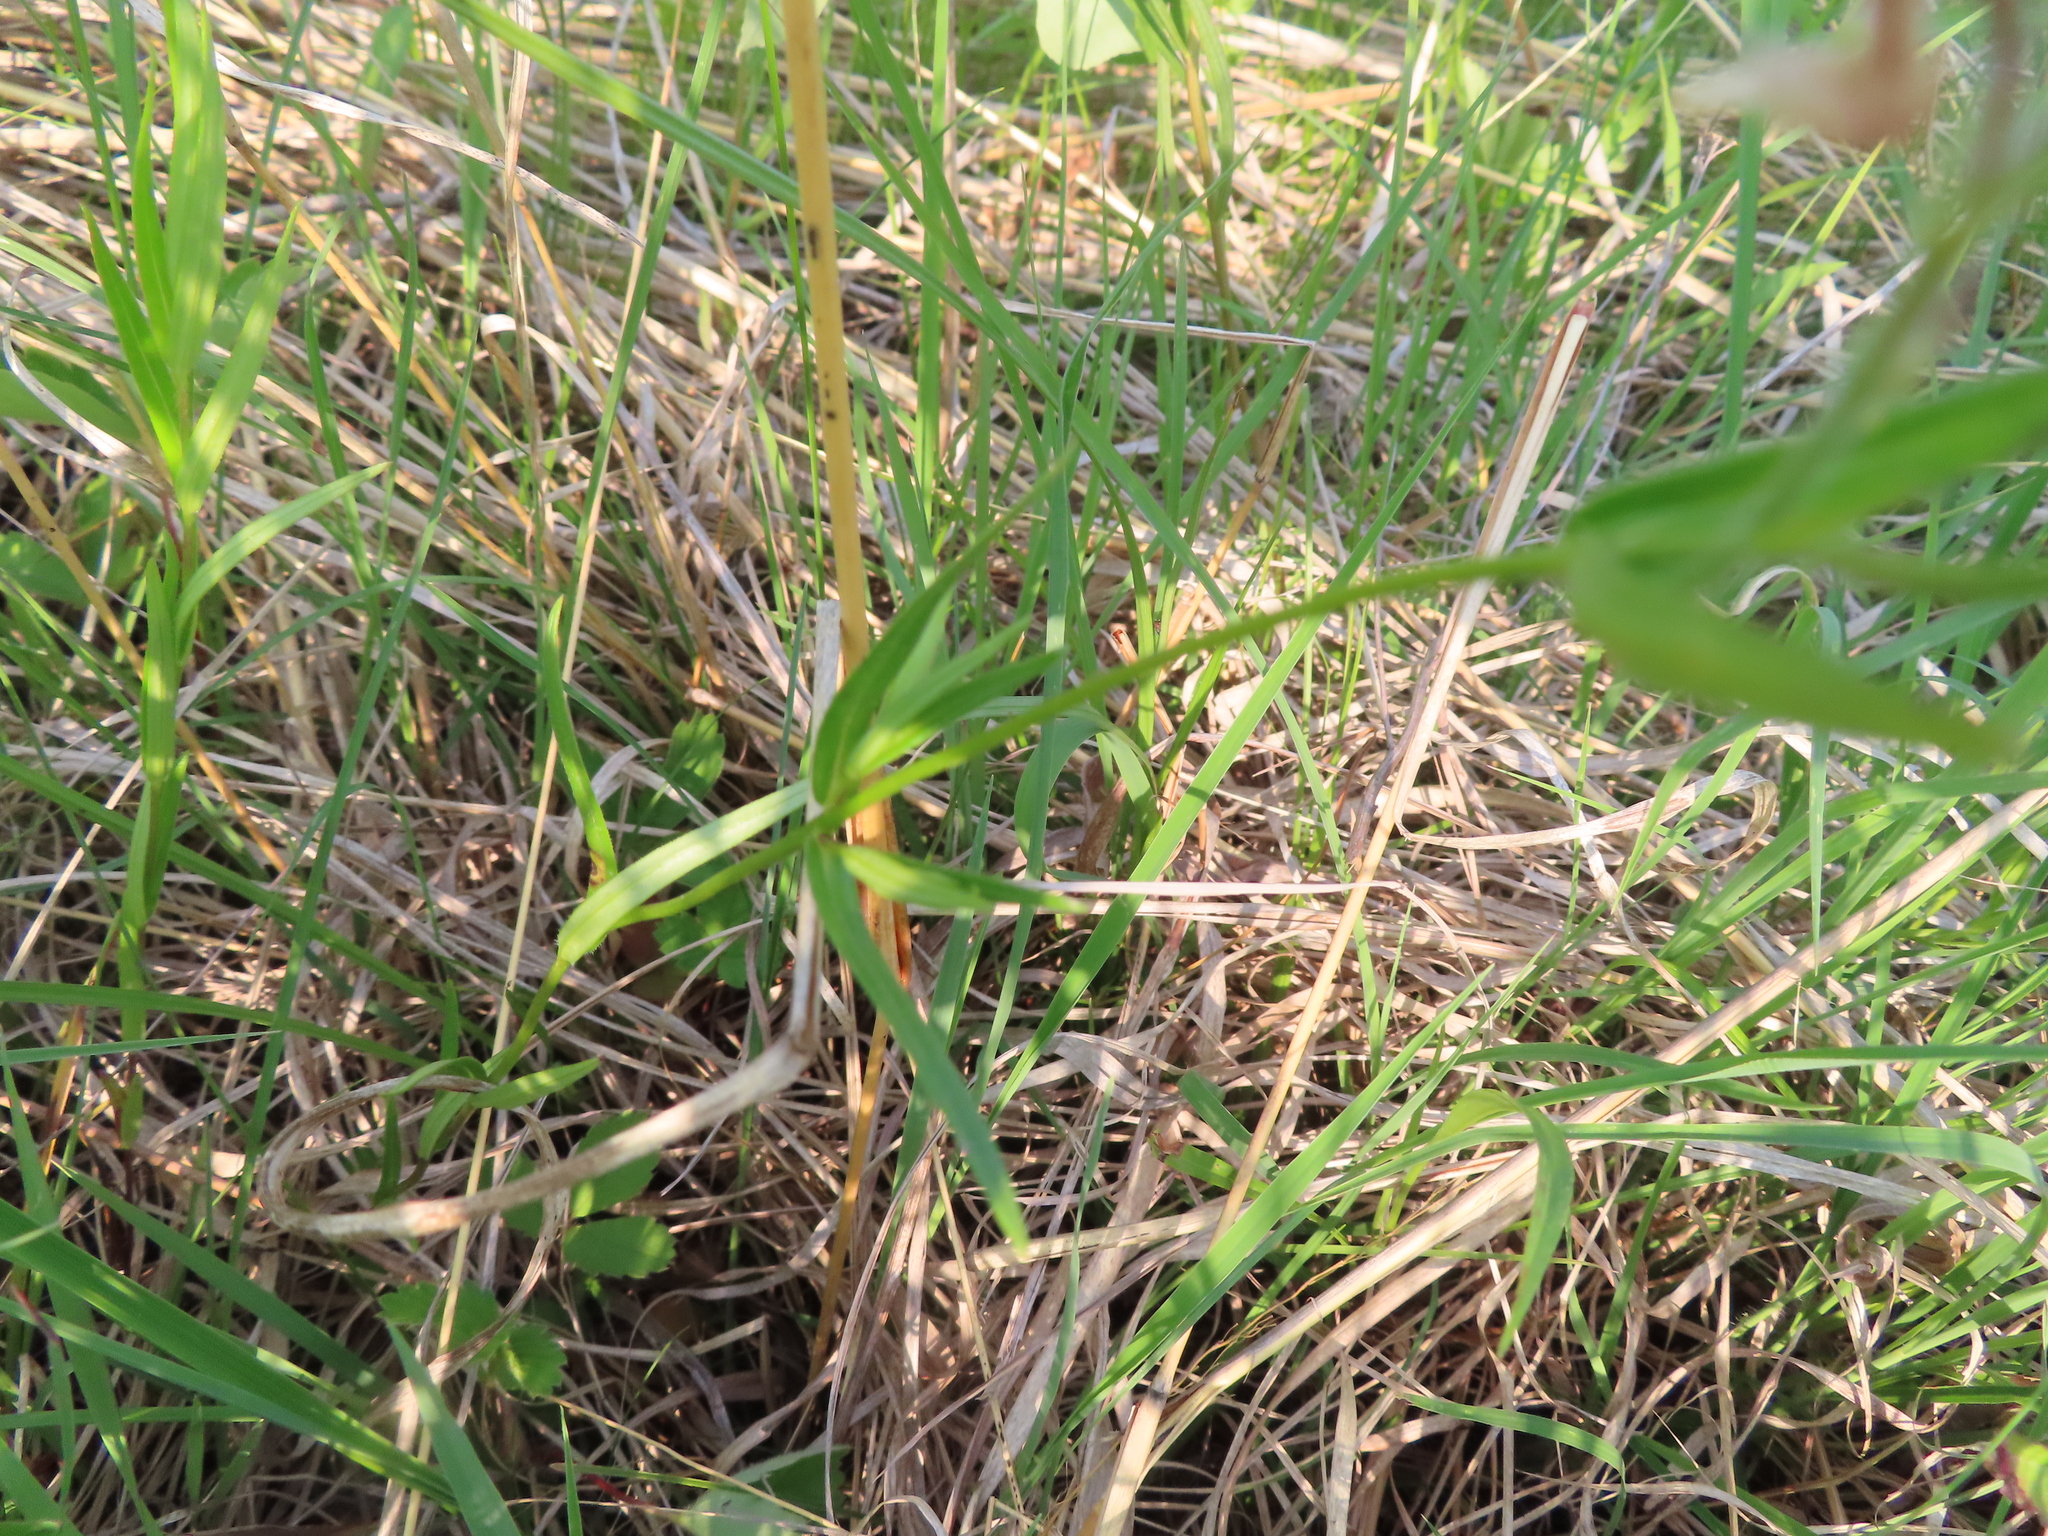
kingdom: Plantae
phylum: Tracheophyta
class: Magnoliopsida
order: Ericales
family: Polemoniaceae
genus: Phlox
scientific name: Phlox pilosa
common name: Prairie phlox
